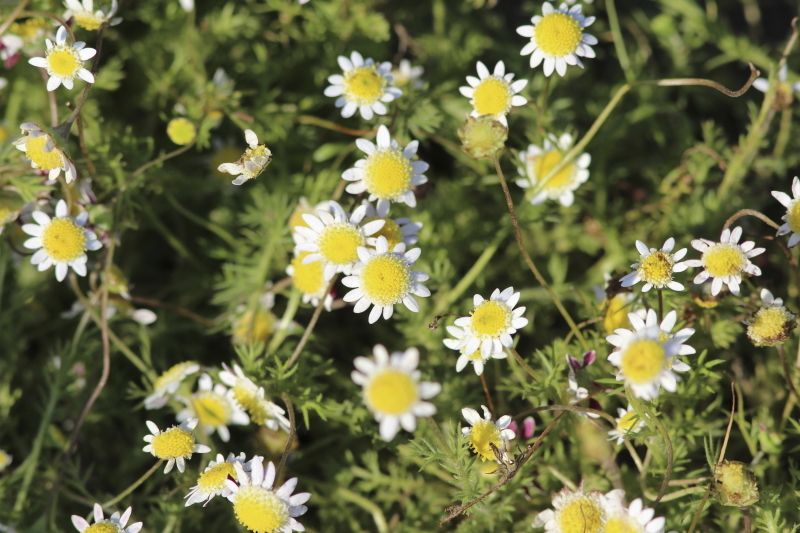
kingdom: Plantae
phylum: Tracheophyta
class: Magnoliopsida
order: Asterales
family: Asteraceae
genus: Cotula
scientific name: Cotula turbinata
